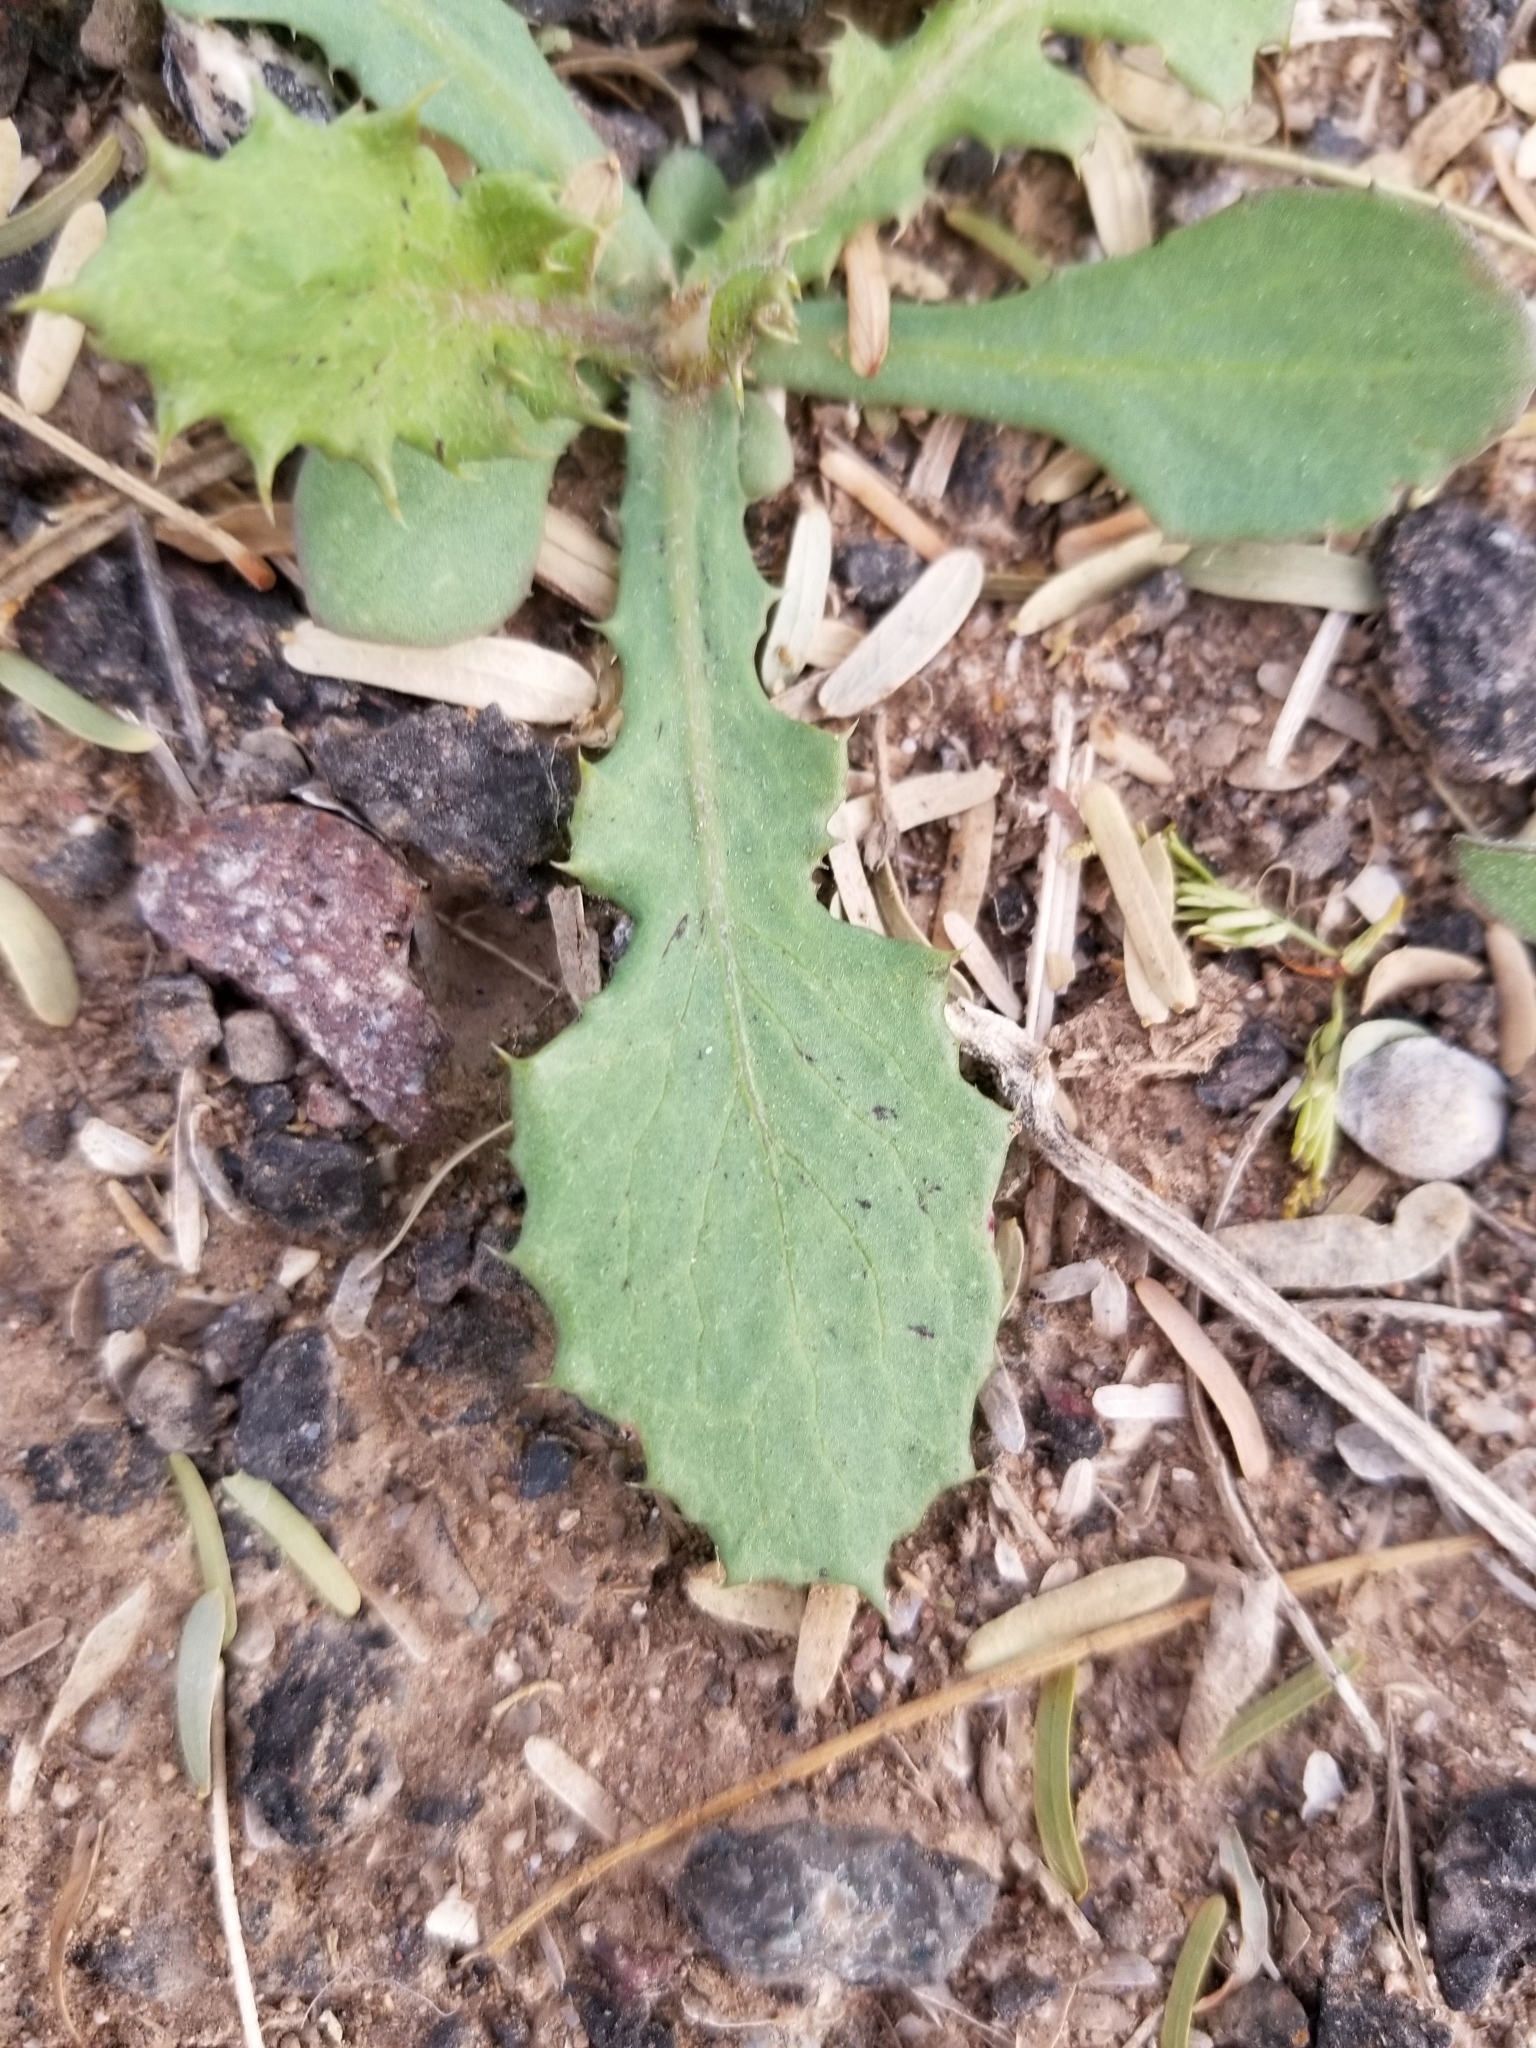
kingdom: Plantae
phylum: Tracheophyta
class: Magnoliopsida
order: Asterales
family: Asteraceae
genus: Urospermum
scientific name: Urospermum picroides
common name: False hawkbit
